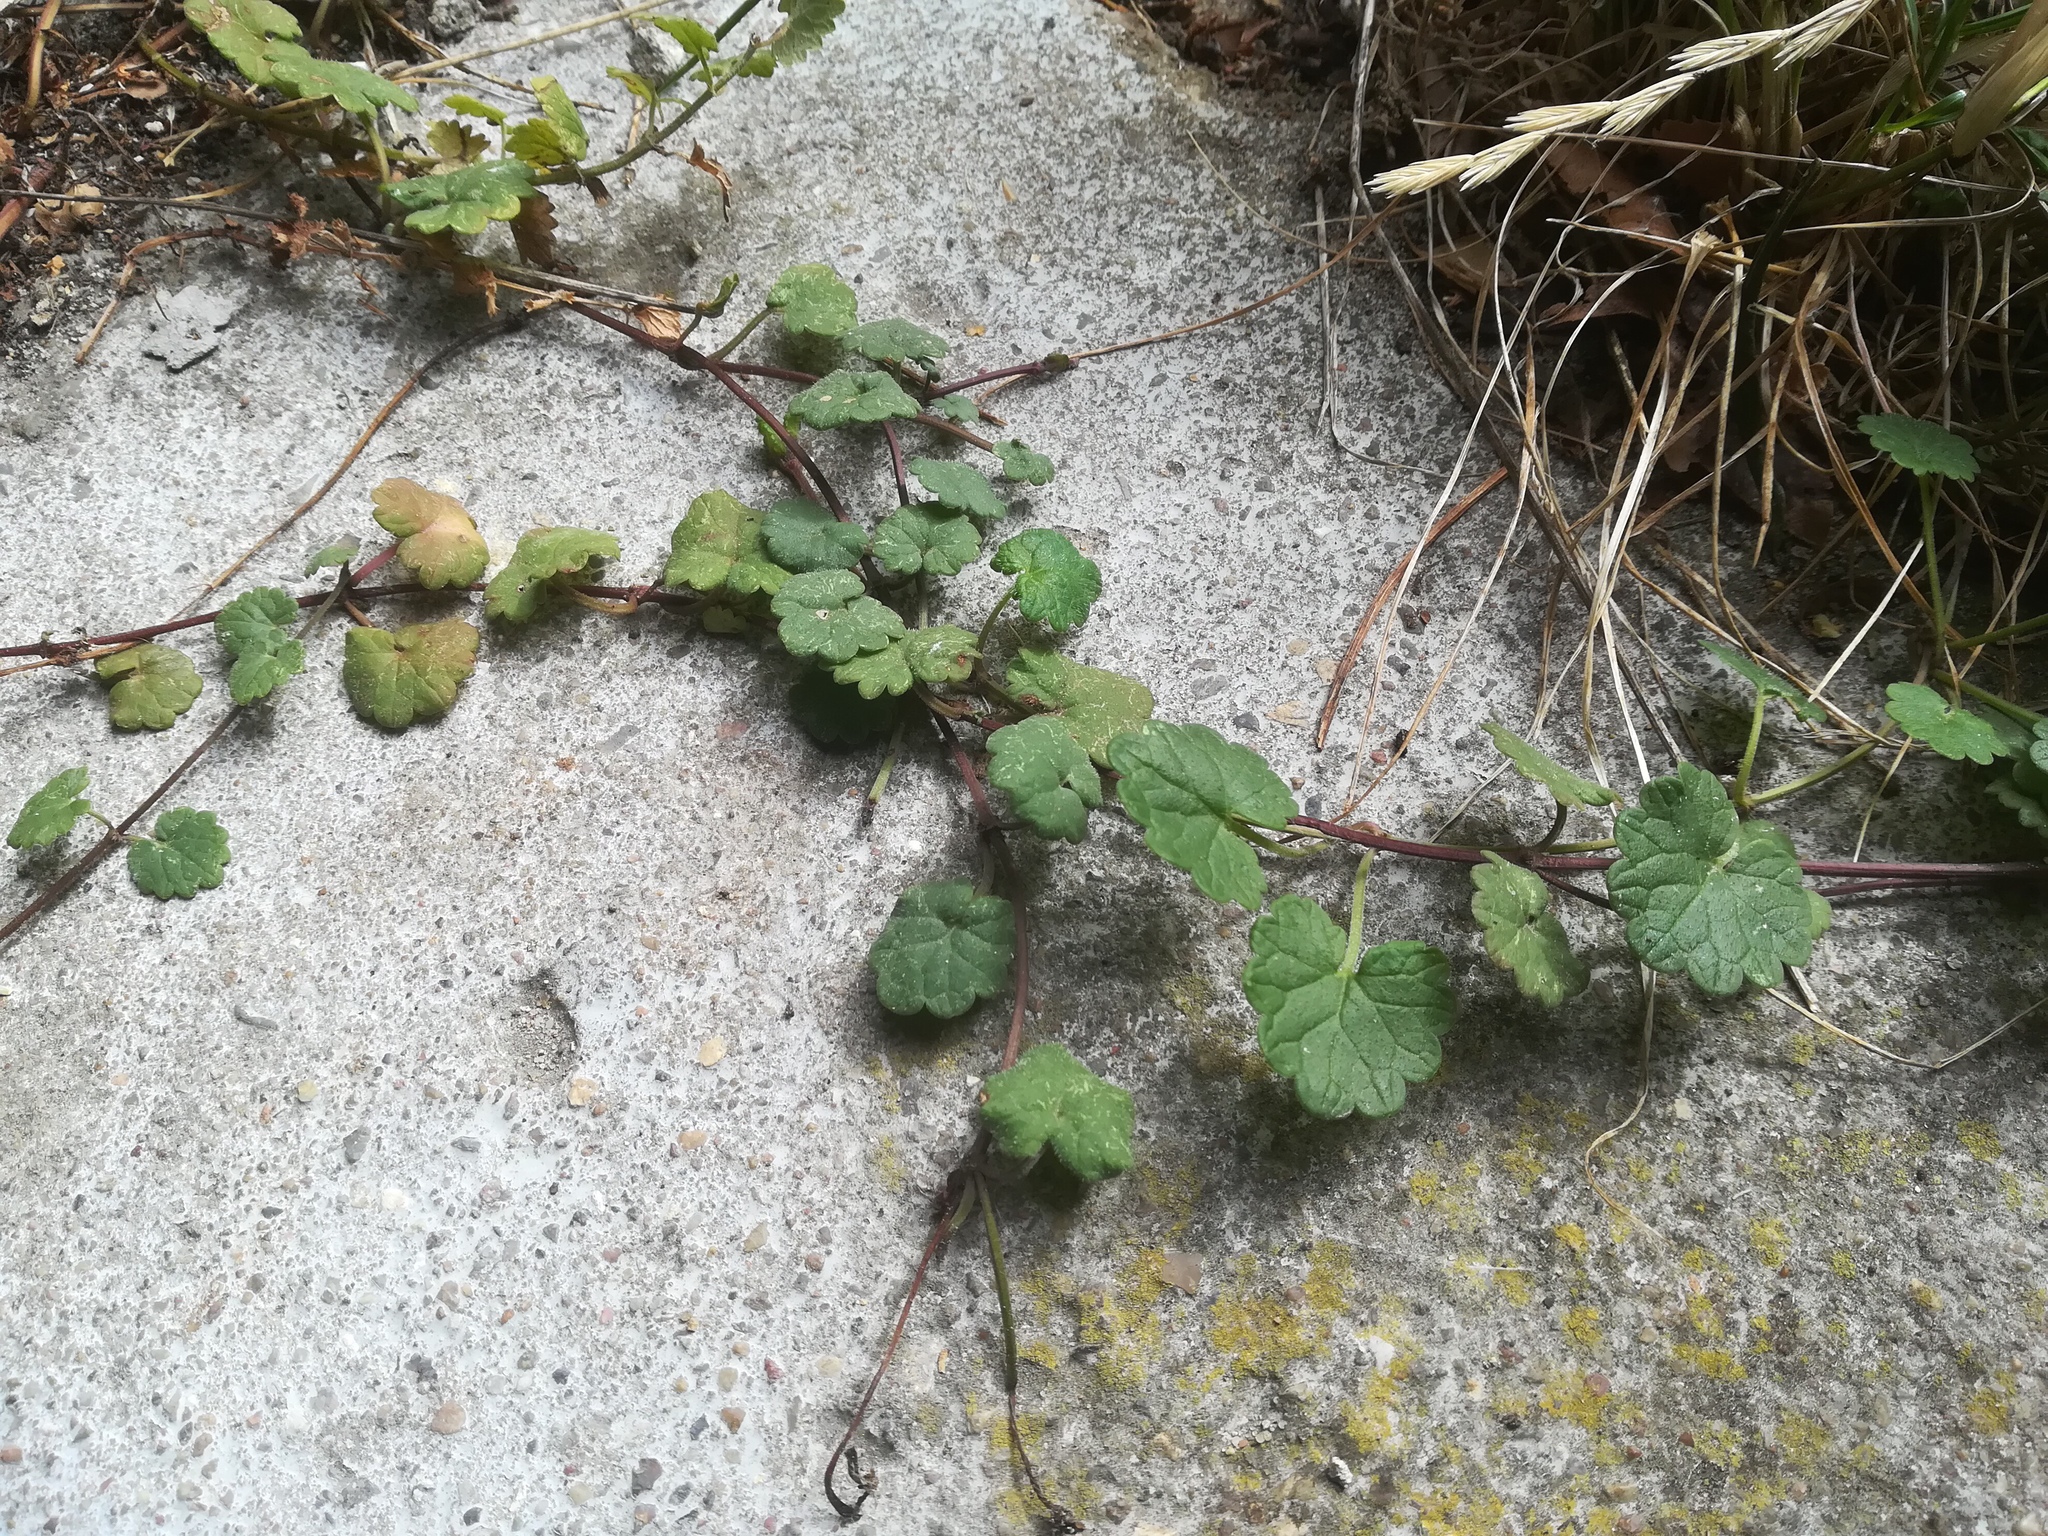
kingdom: Plantae
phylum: Tracheophyta
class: Magnoliopsida
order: Lamiales
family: Lamiaceae
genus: Glechoma
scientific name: Glechoma hederacea
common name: Ground ivy
